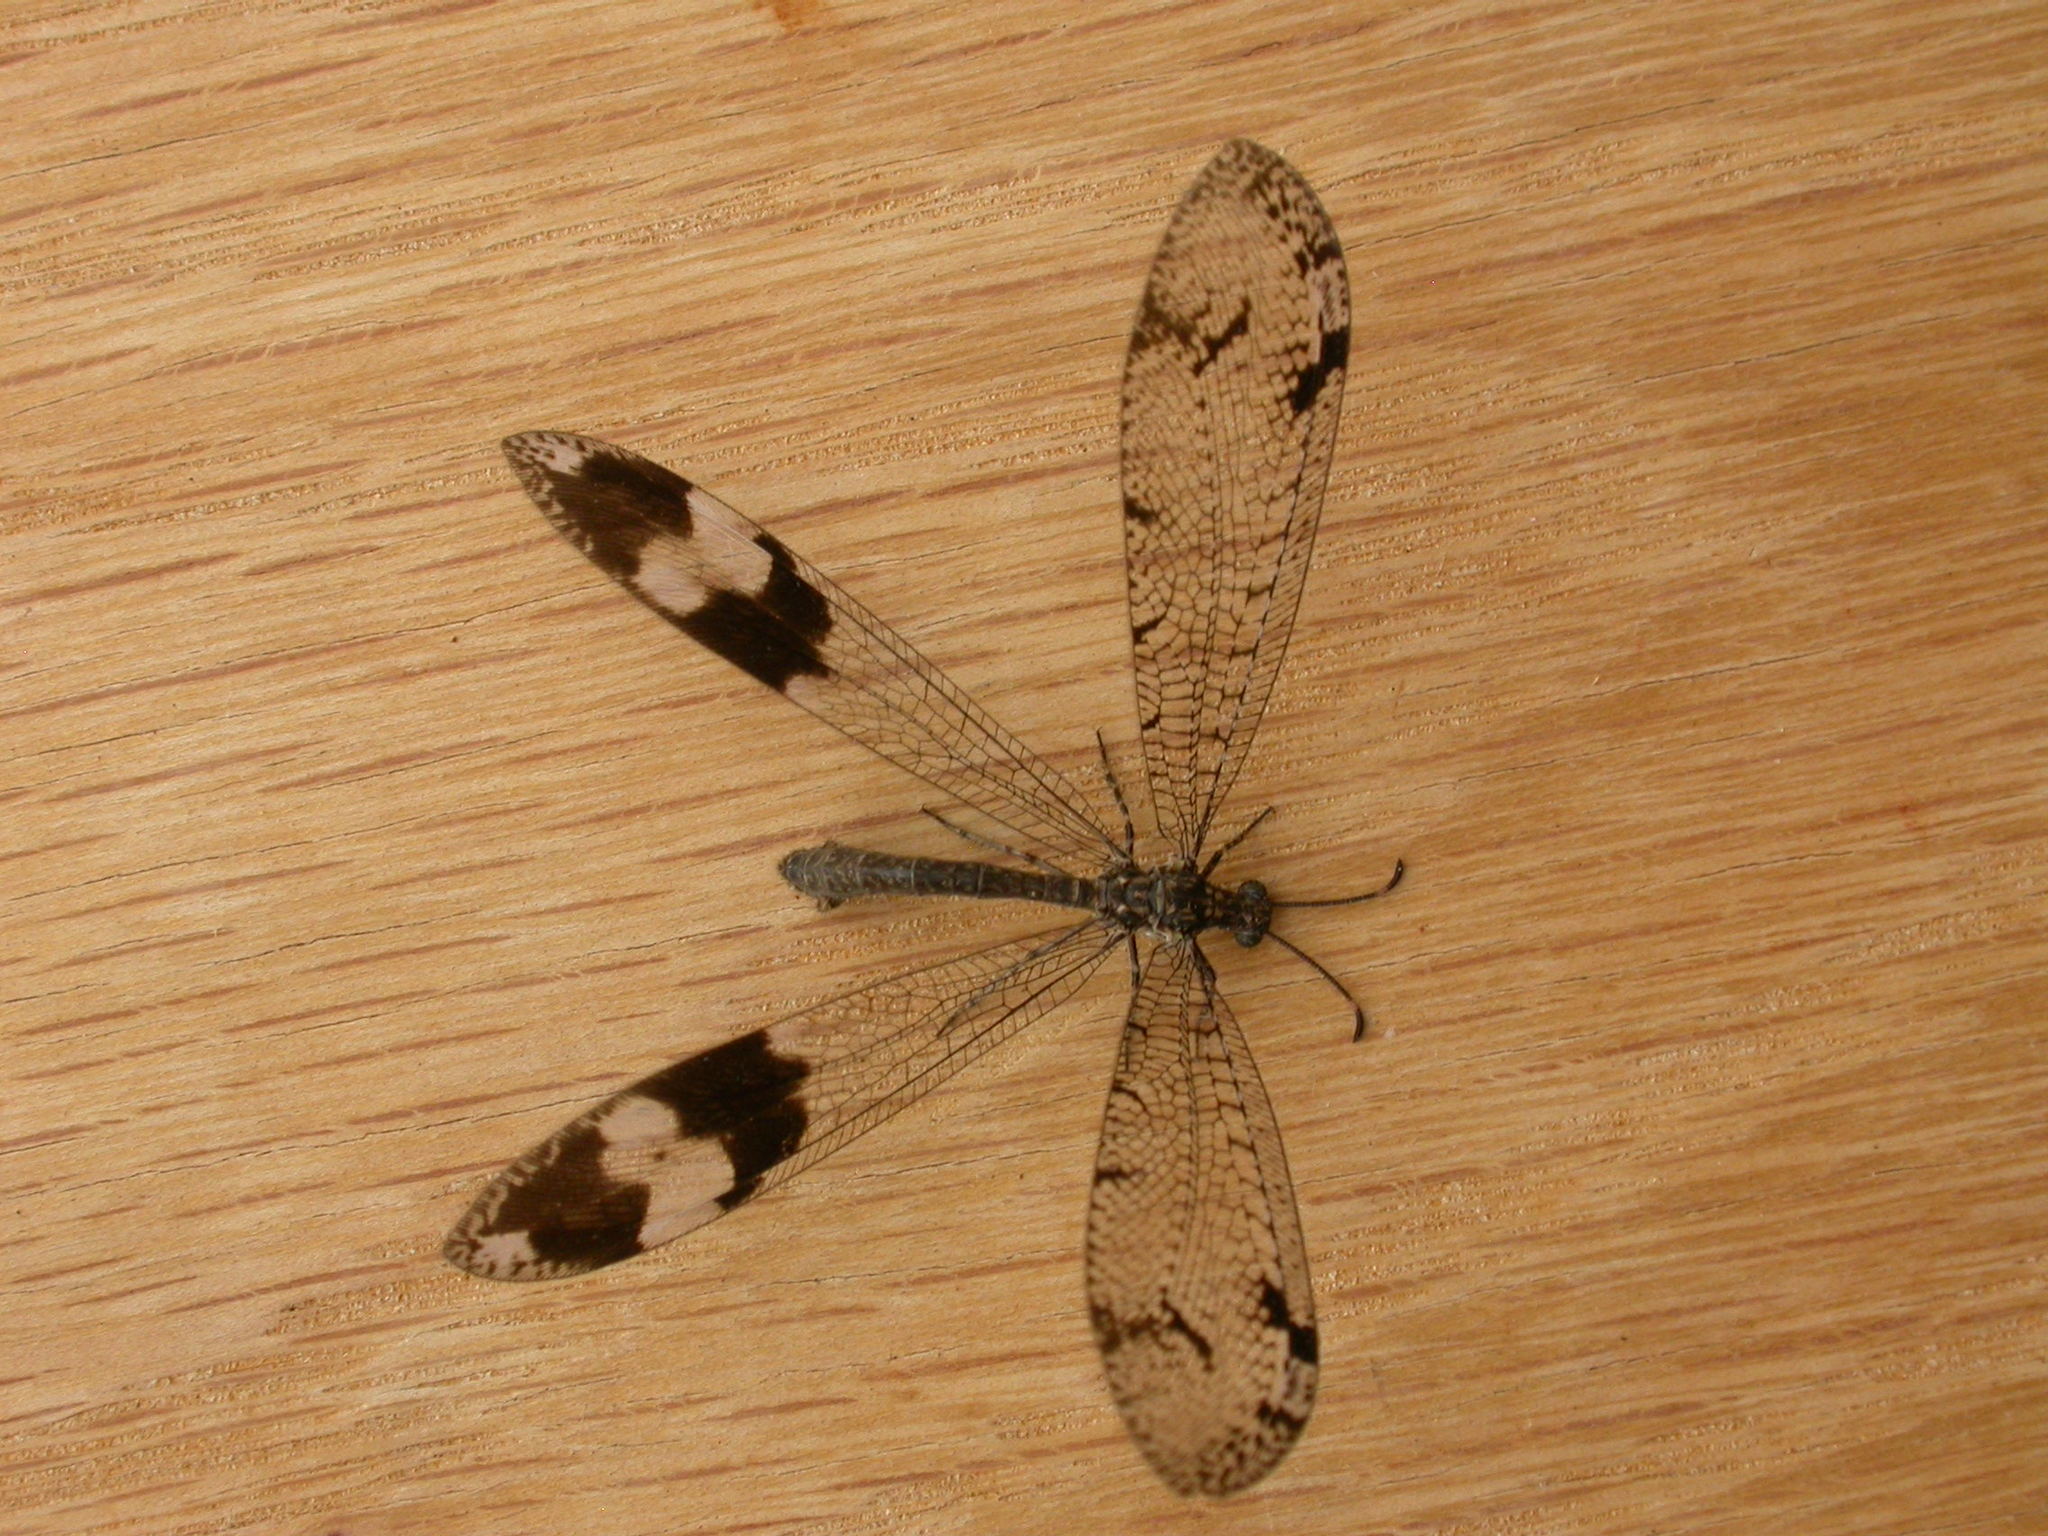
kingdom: Animalia
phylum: Arthropoda
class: Insecta
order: Neuroptera
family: Myrmeleontidae
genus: Glenoleon
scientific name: Glenoleon pulchellus
